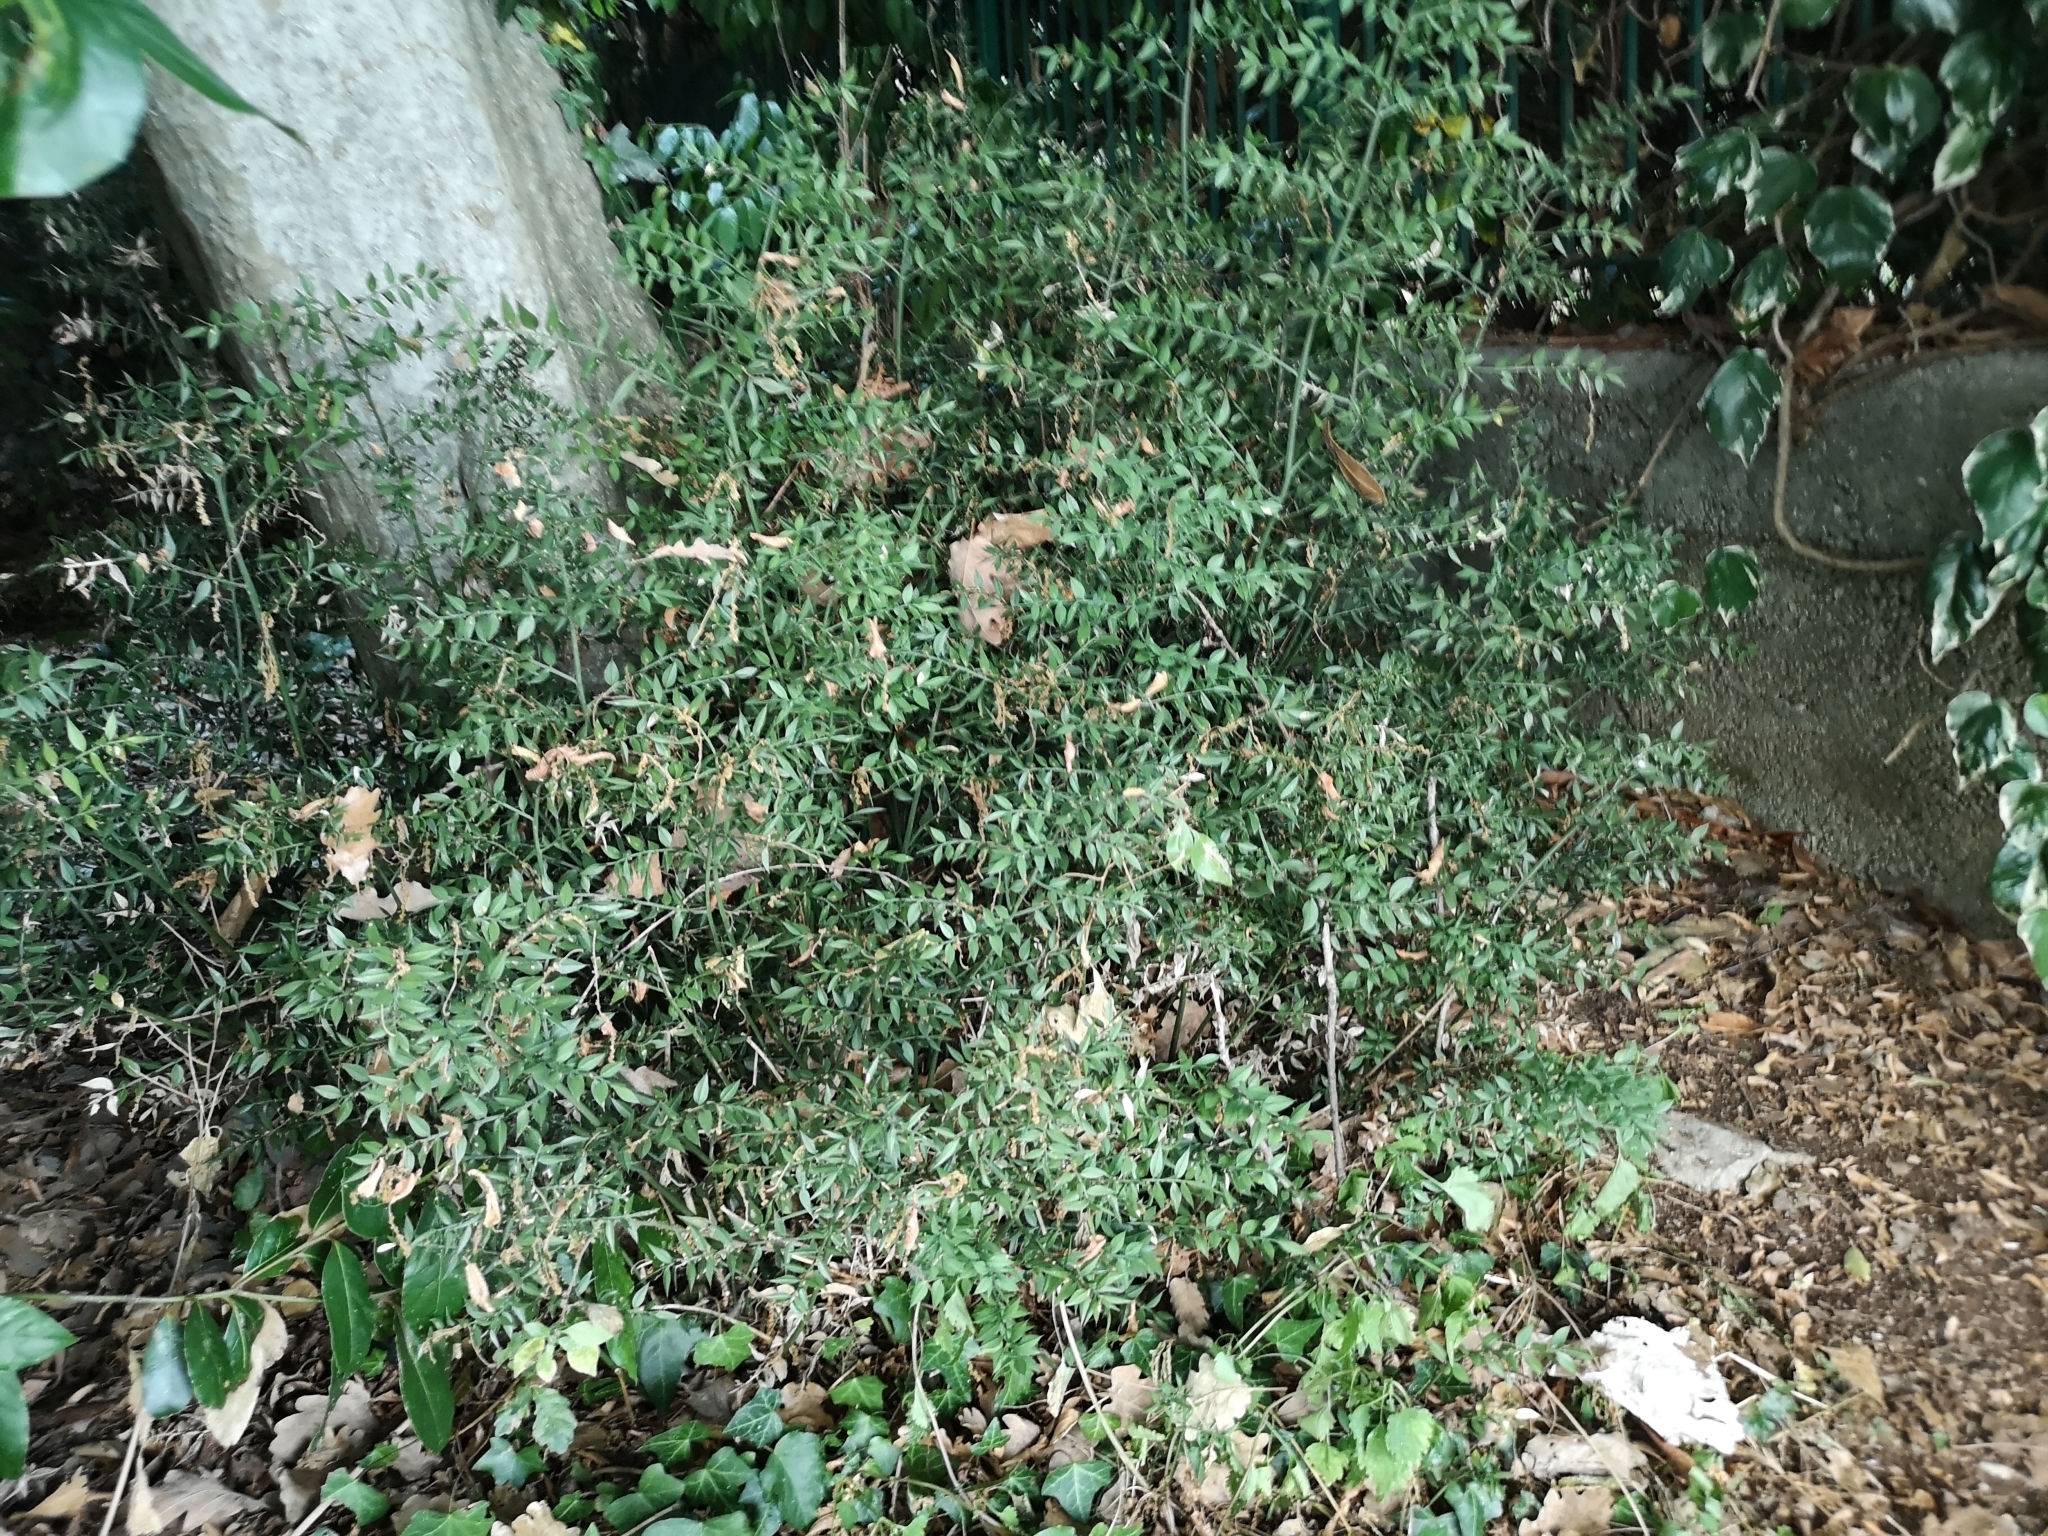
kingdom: Plantae
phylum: Tracheophyta
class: Liliopsida
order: Asparagales
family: Asparagaceae
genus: Ruscus
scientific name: Ruscus aculeatus
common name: Butcher's-broom
